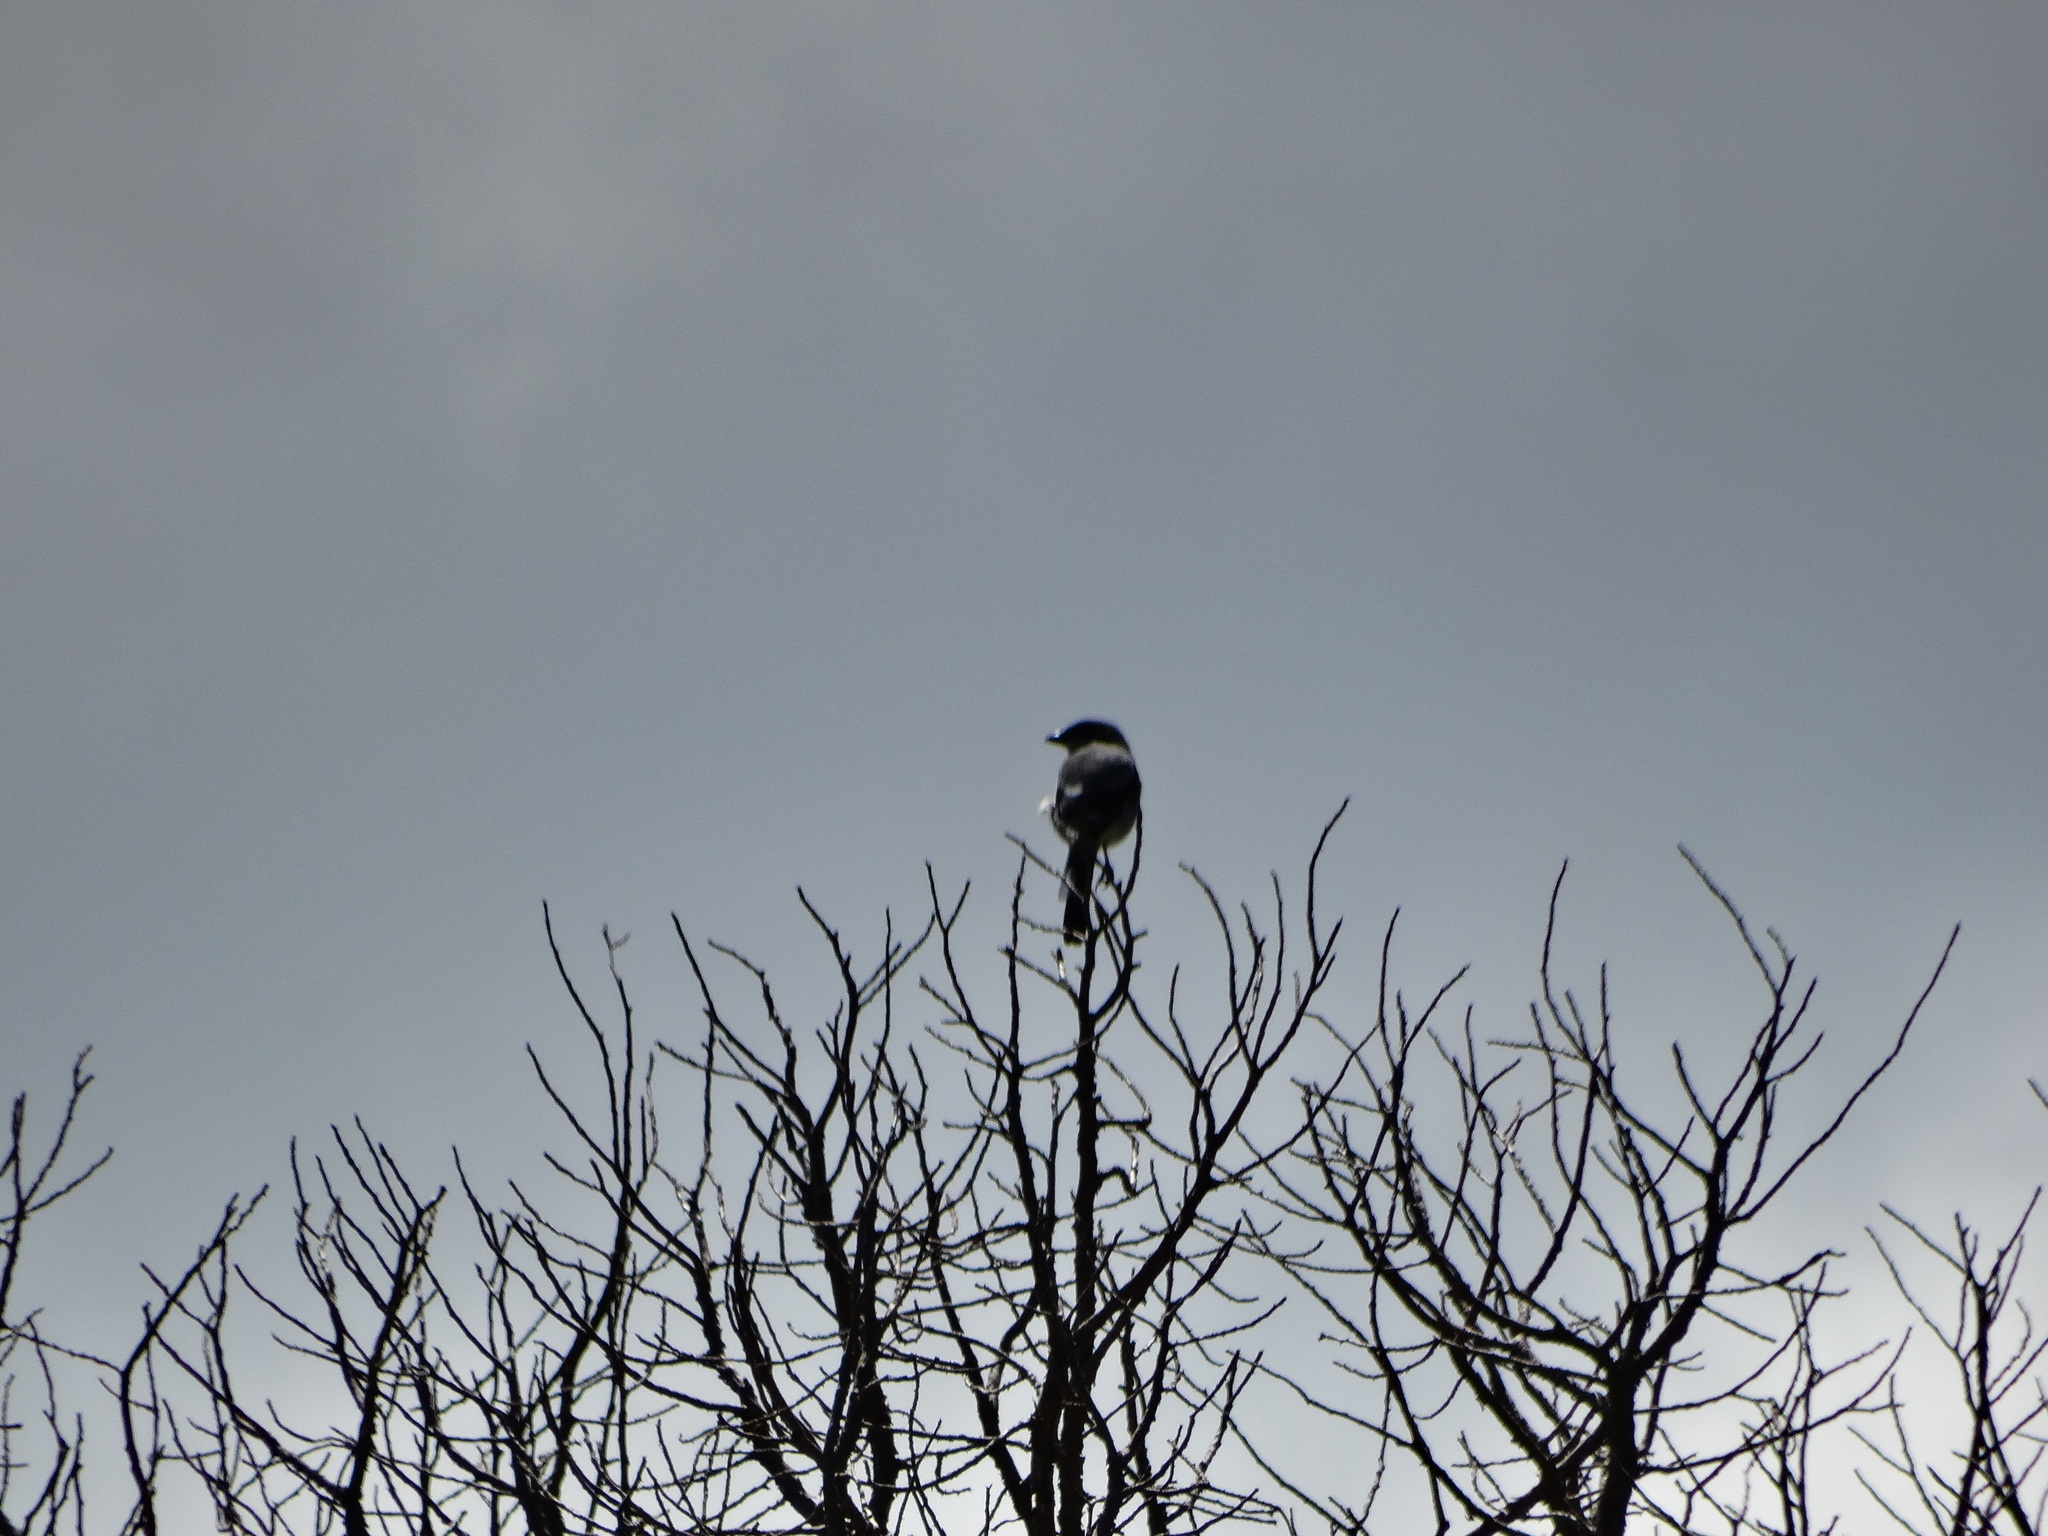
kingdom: Animalia
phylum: Chordata
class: Aves
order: Passeriformes
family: Laniidae
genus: Lanius
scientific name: Lanius ludovicianus
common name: Loggerhead shrike
